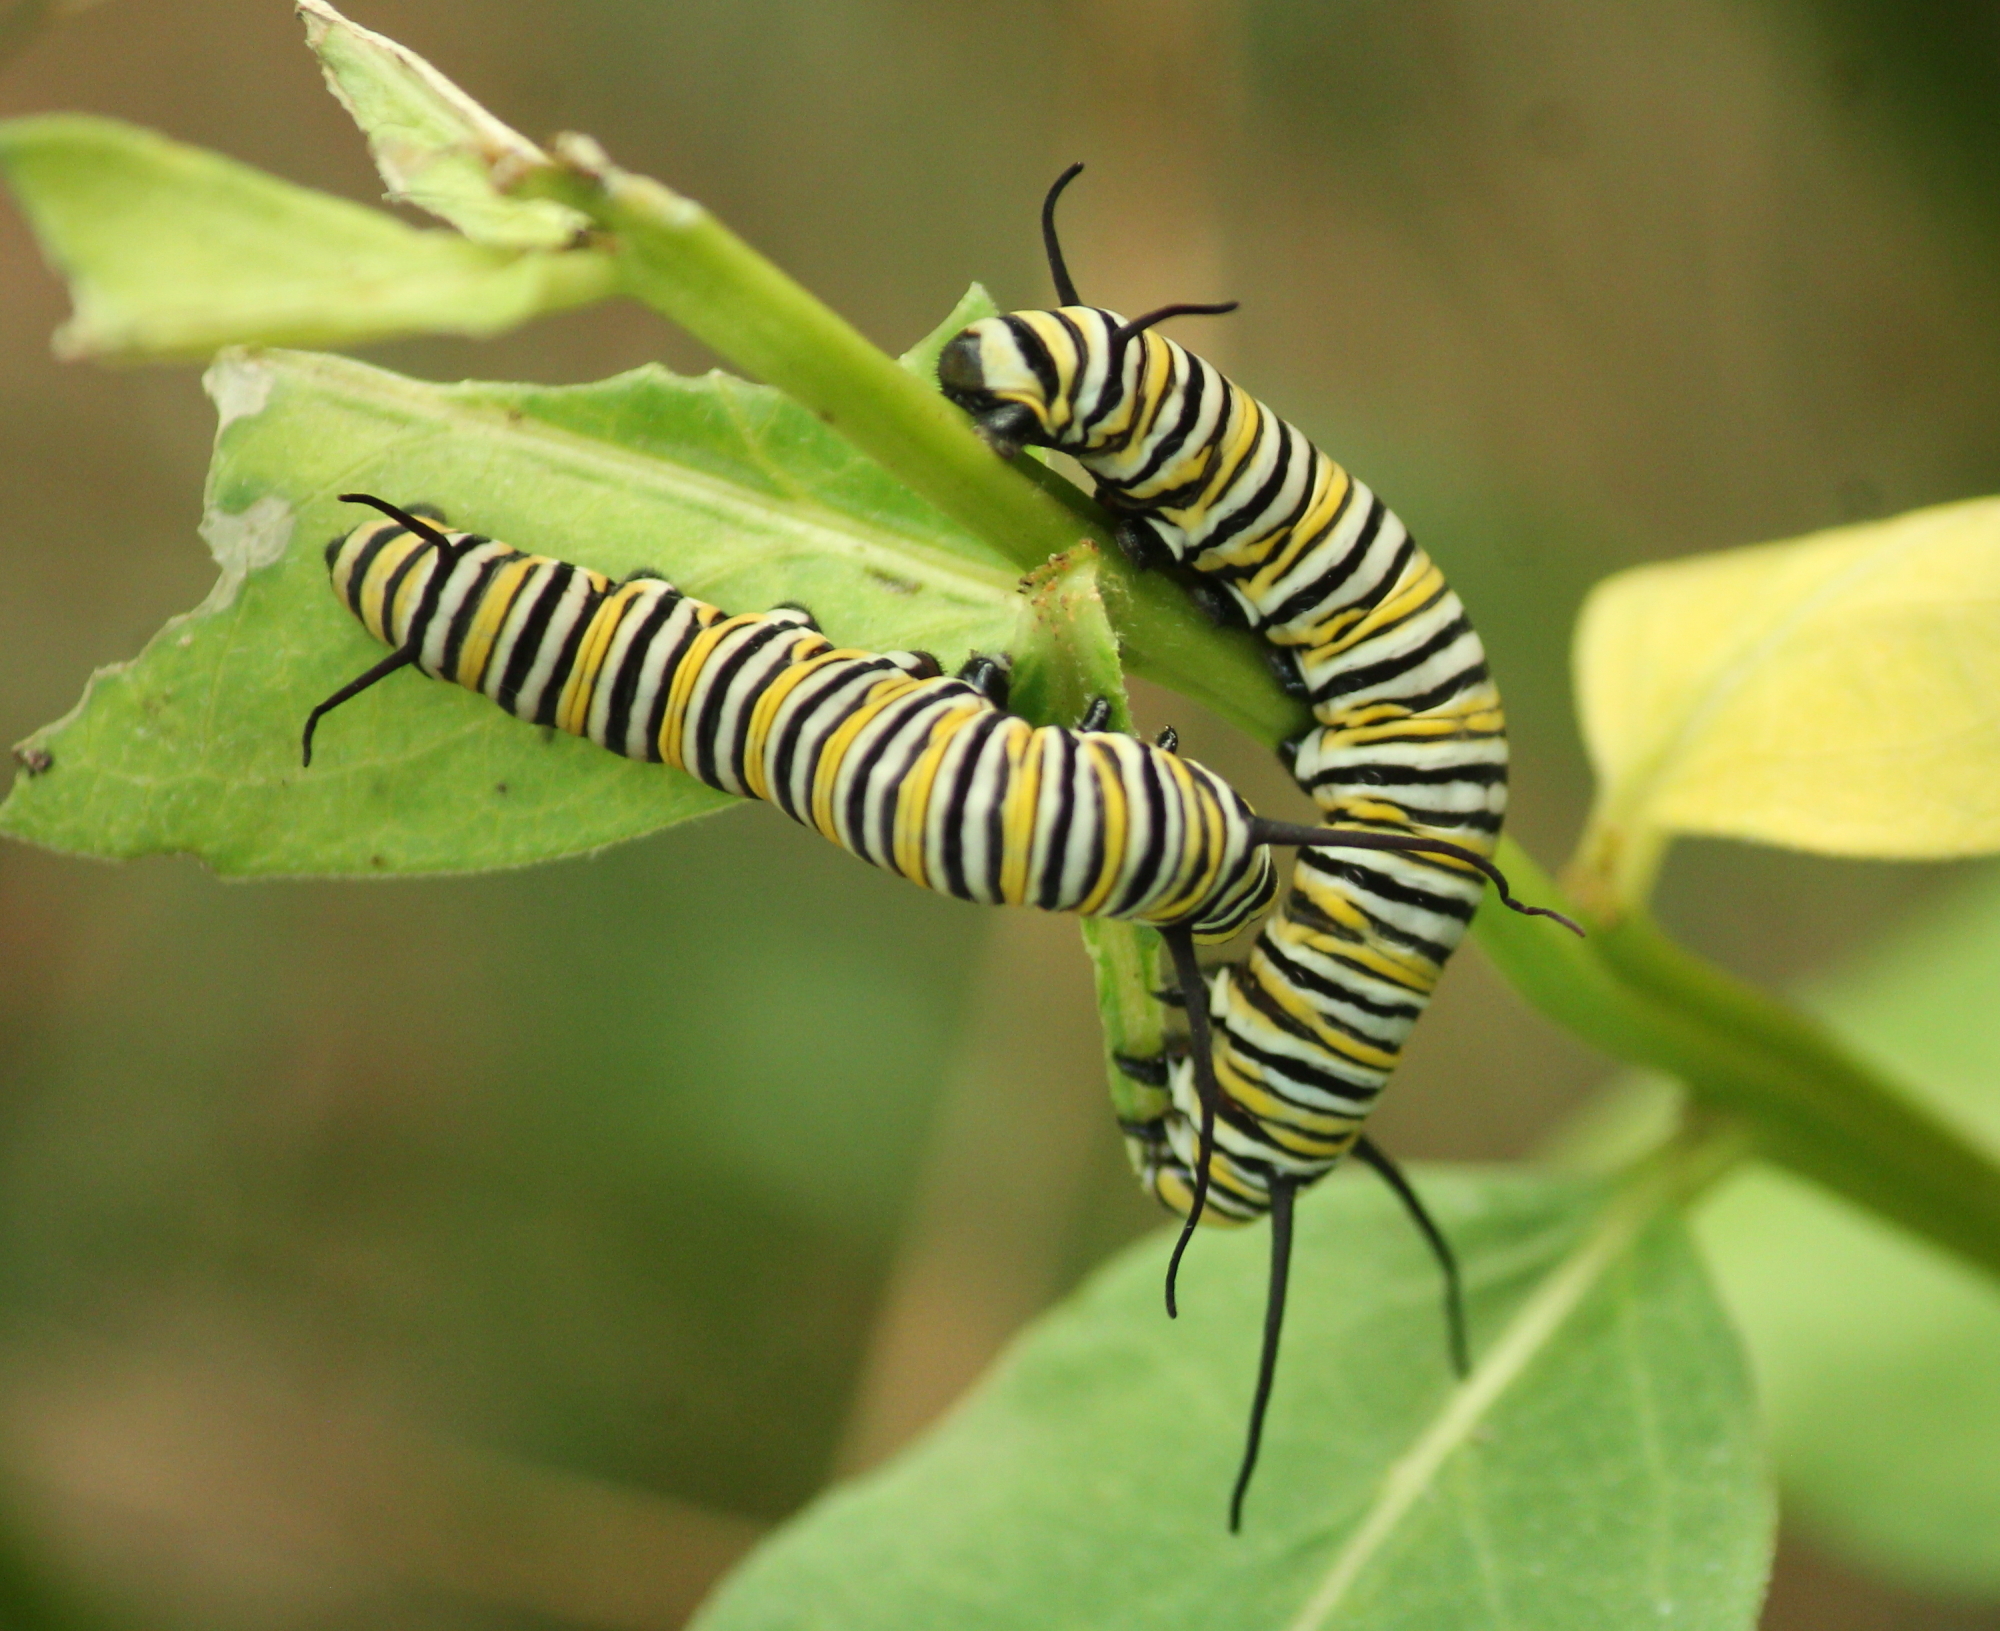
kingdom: Animalia
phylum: Arthropoda
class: Insecta
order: Lepidoptera
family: Nymphalidae
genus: Danaus
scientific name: Danaus plexippus
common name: Monarch
